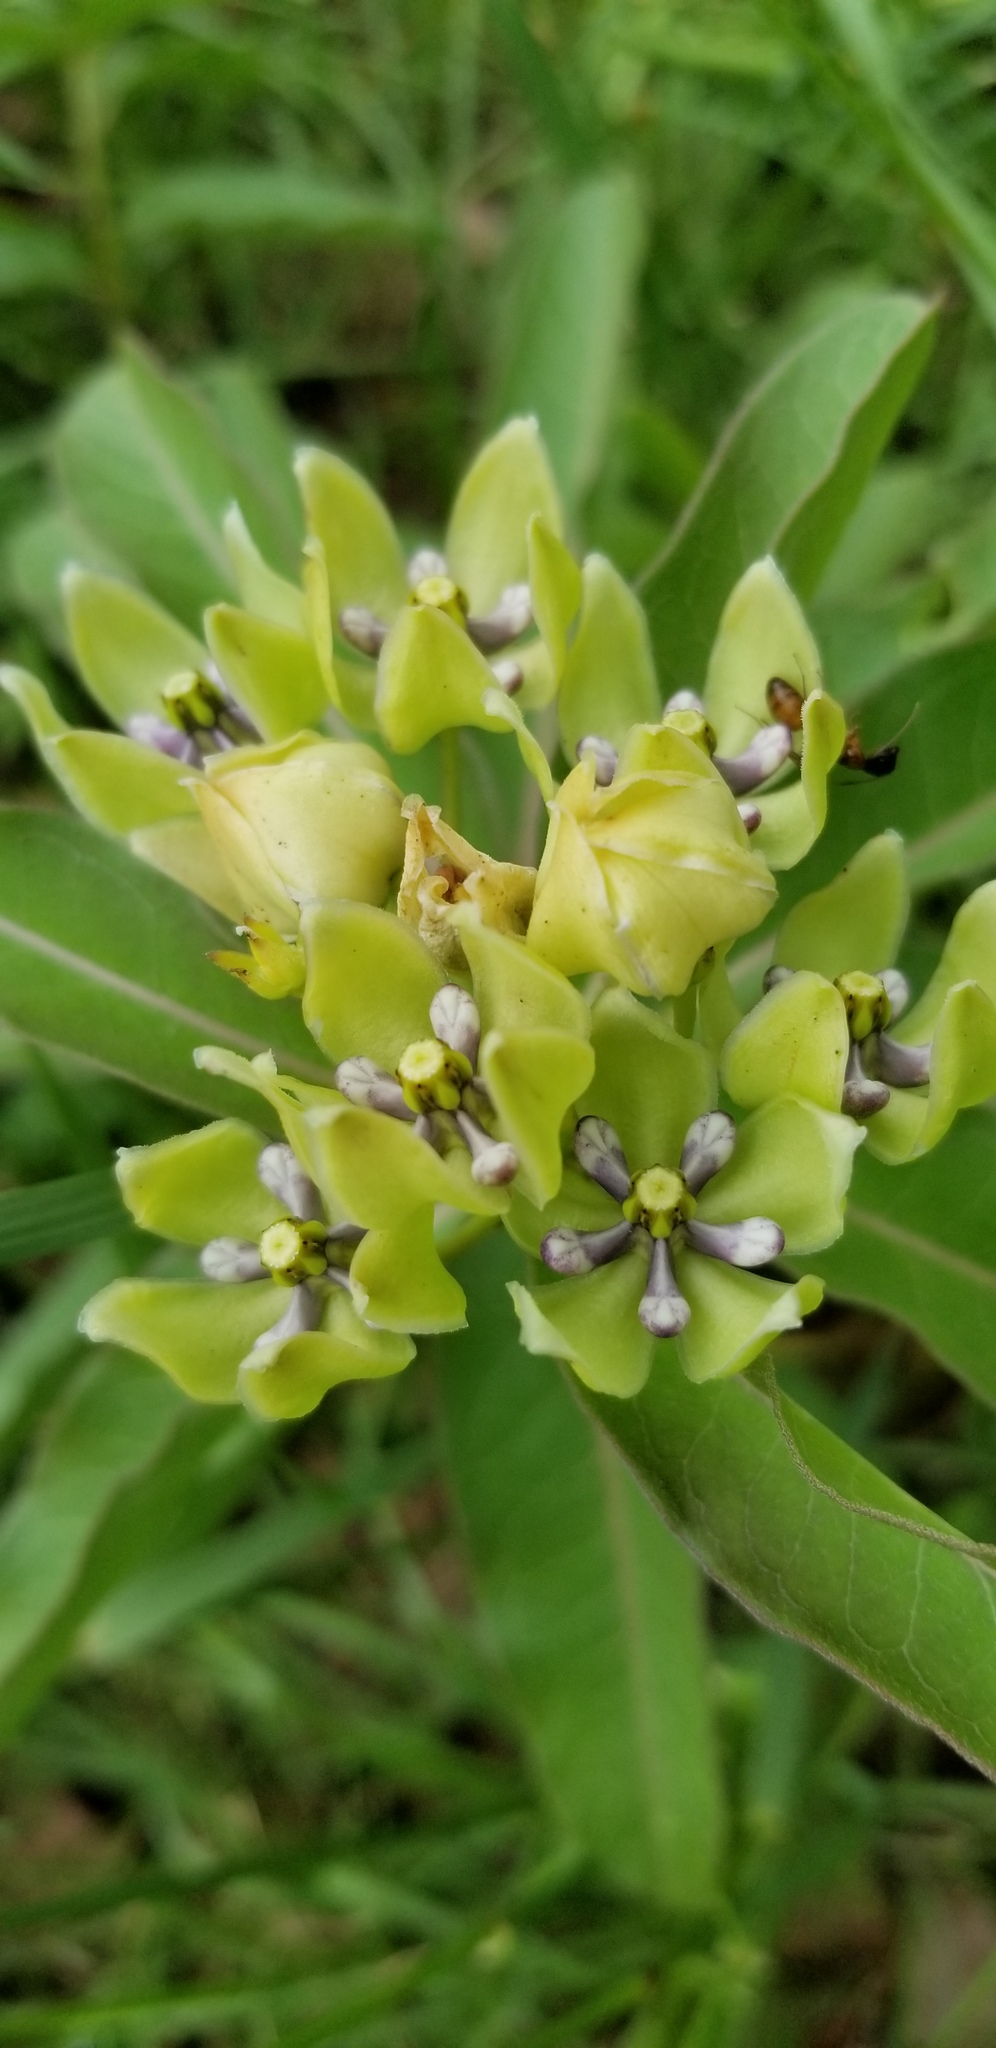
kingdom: Plantae
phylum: Tracheophyta
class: Magnoliopsida
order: Gentianales
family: Apocynaceae
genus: Asclepias
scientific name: Asclepias viridis
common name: Antelope-horns
